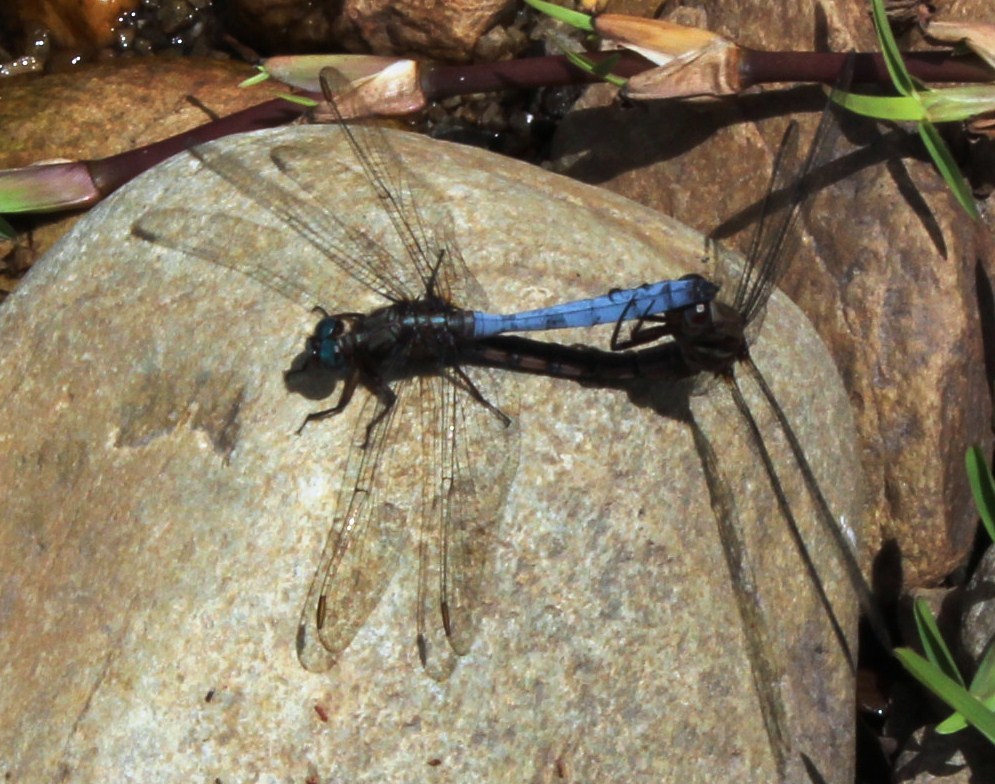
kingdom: Animalia
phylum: Arthropoda
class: Insecta
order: Odonata
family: Libellulidae
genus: Orthetrum
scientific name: Orthetrum julia
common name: Julia skimmer
